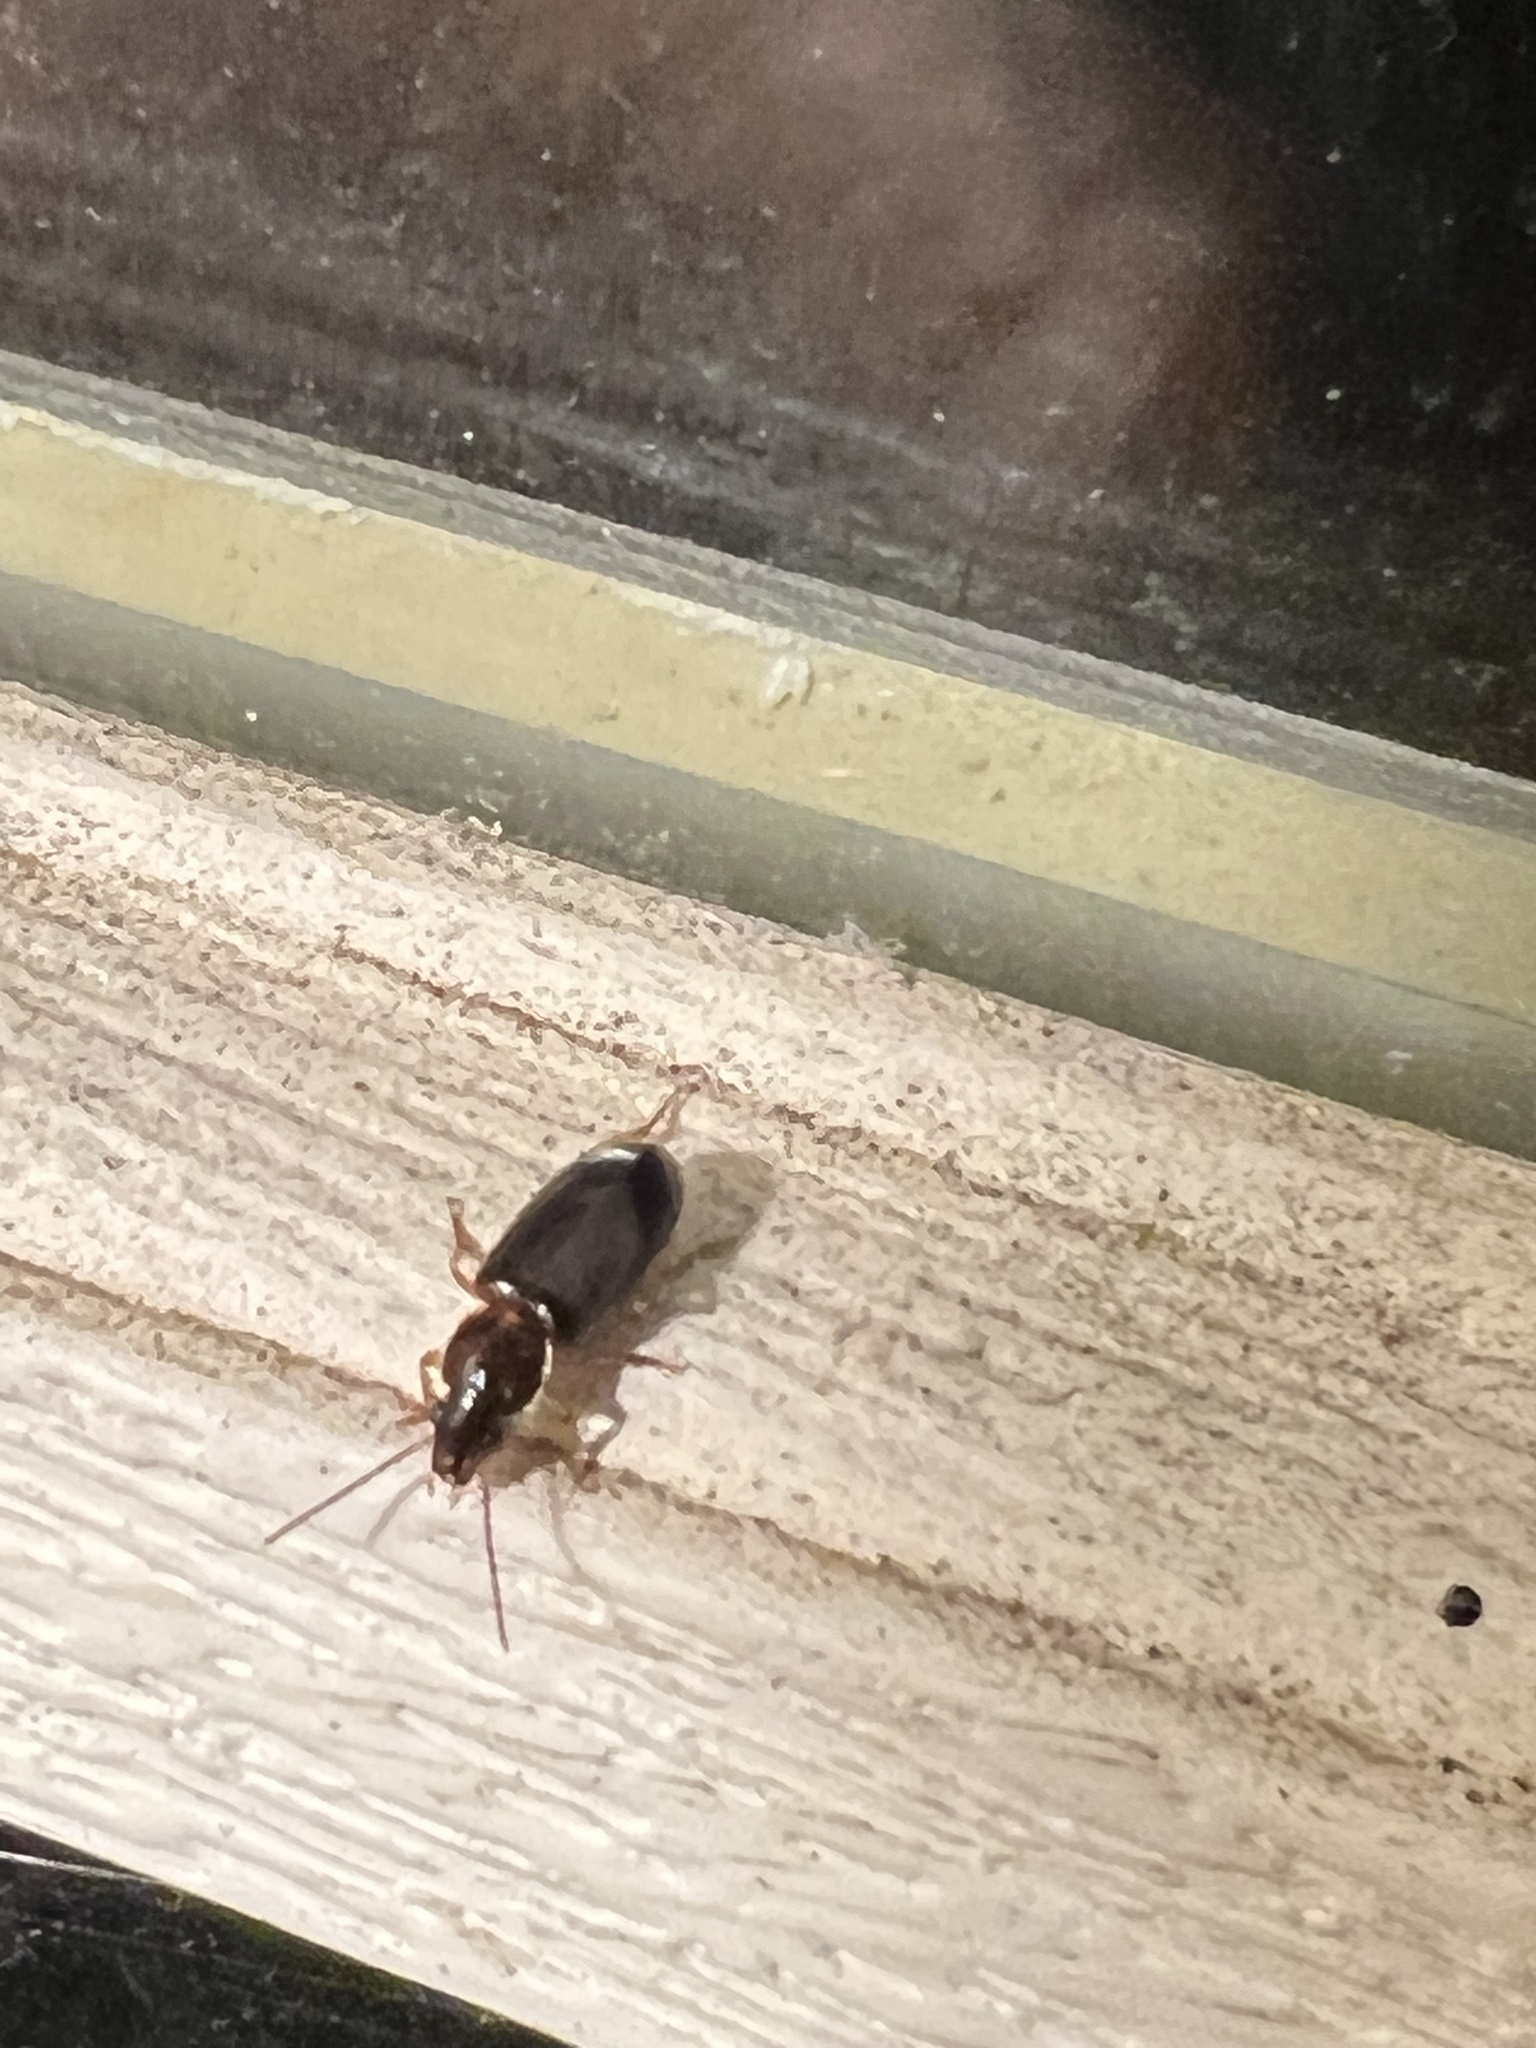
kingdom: Animalia
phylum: Arthropoda
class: Insecta
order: Coleoptera
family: Carabidae
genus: Stenolophus
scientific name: Stenolophus ochropezus
